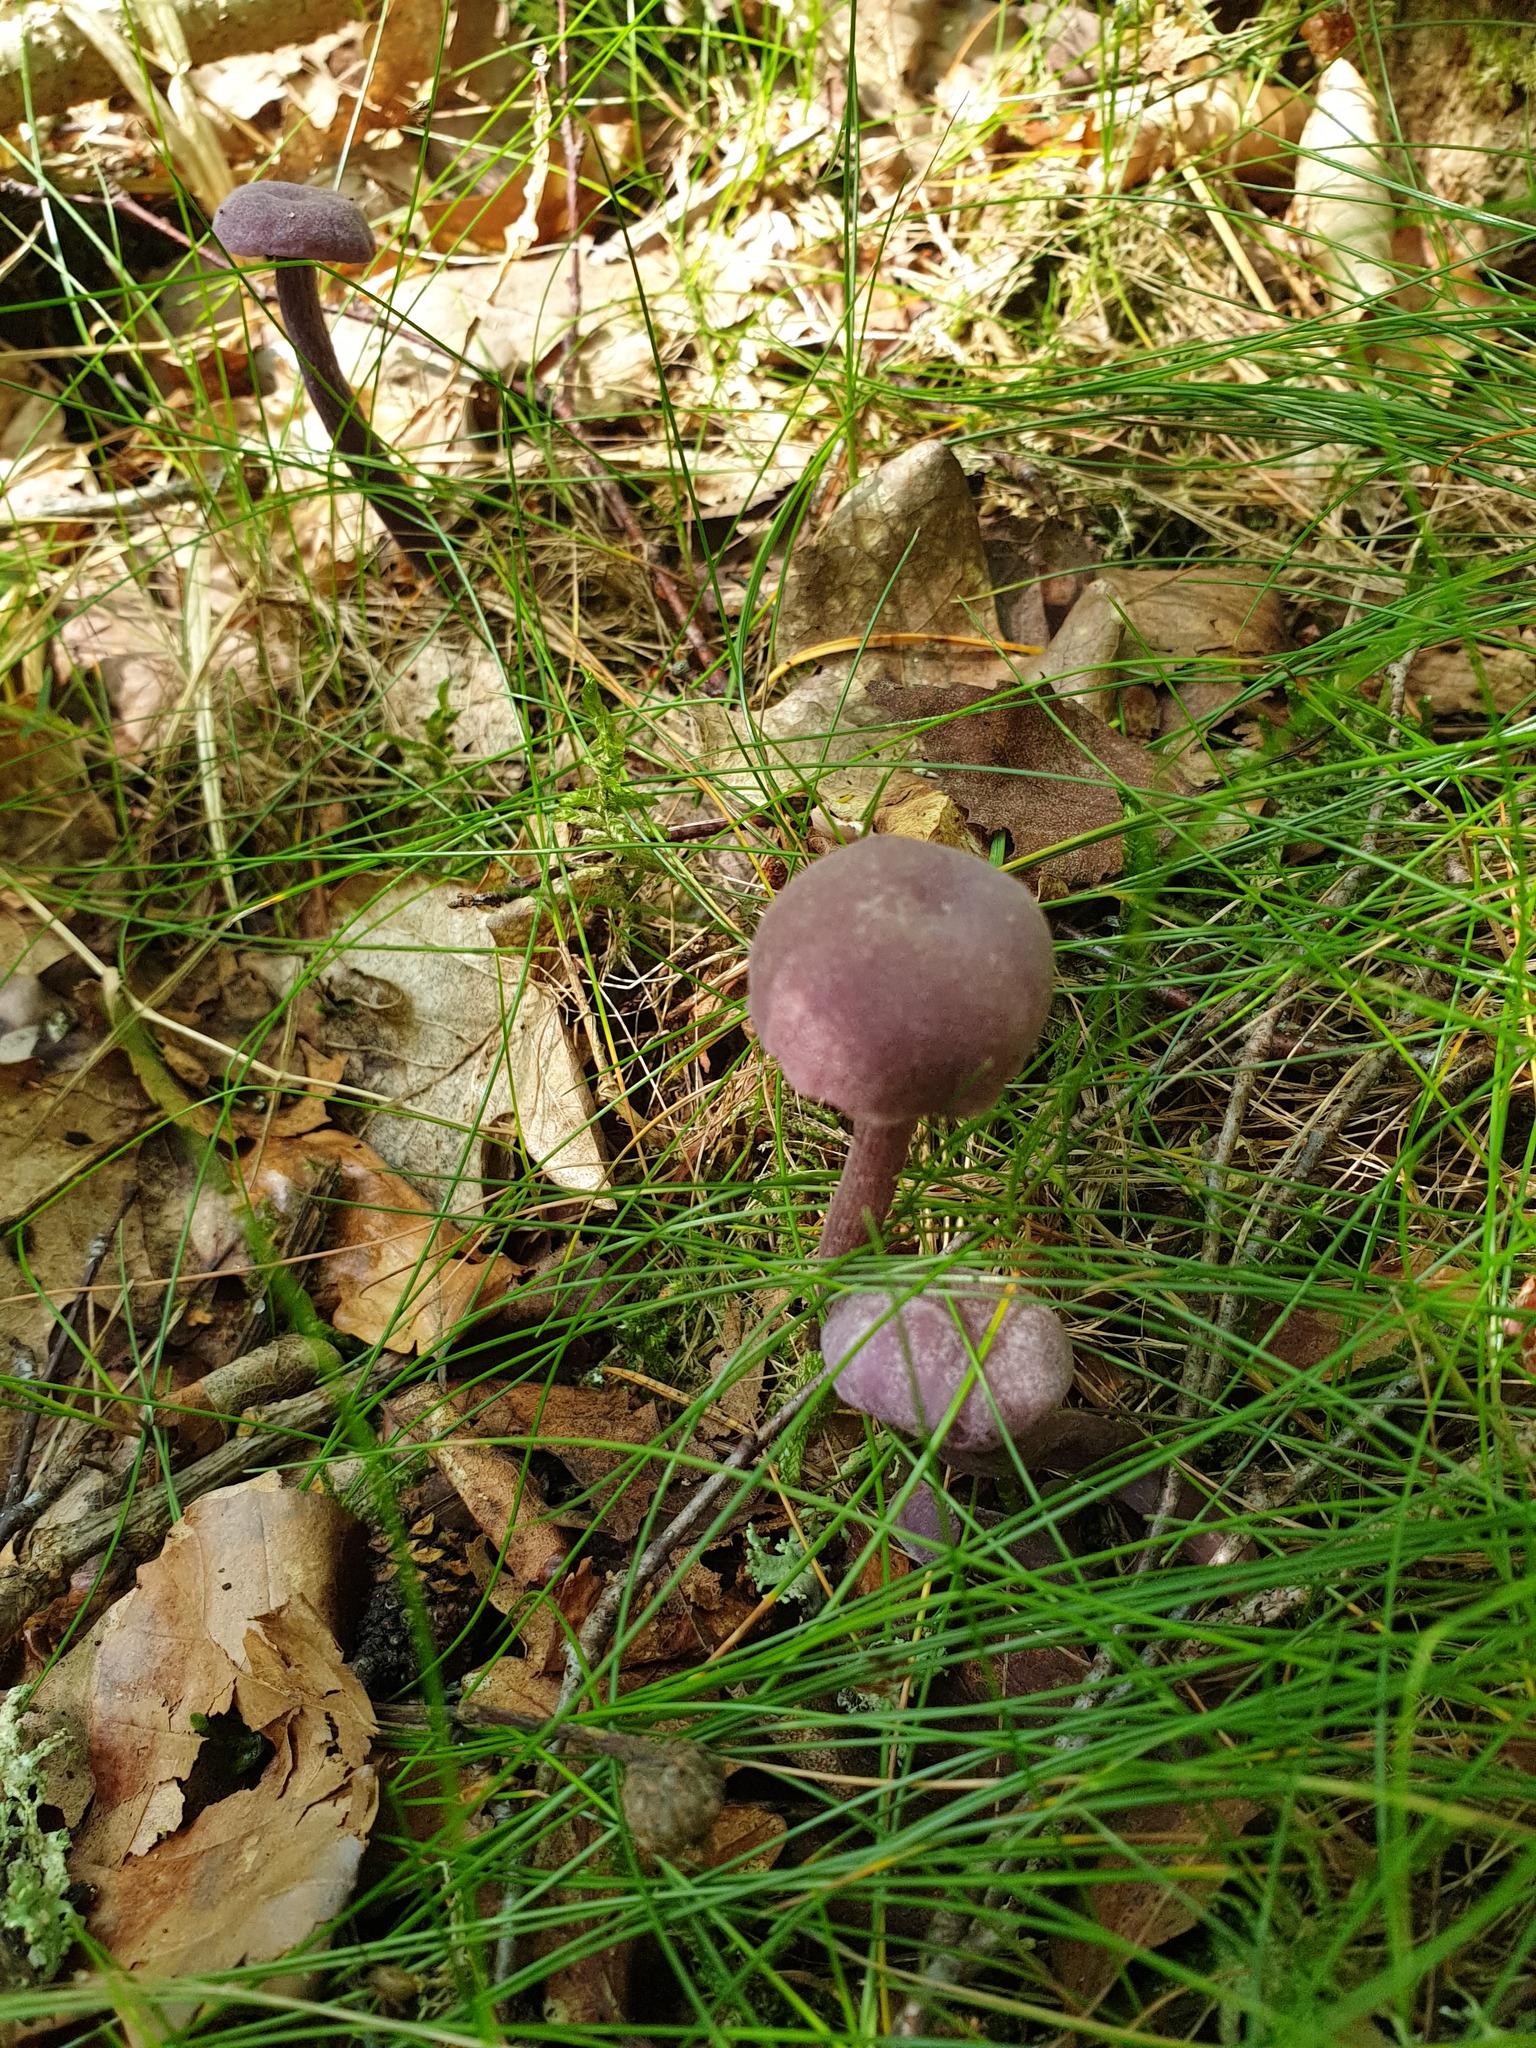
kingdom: Fungi
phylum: Basidiomycota
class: Agaricomycetes
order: Agaricales
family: Hydnangiaceae
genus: Laccaria
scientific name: Laccaria amethystina
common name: Amethyst deceiver
